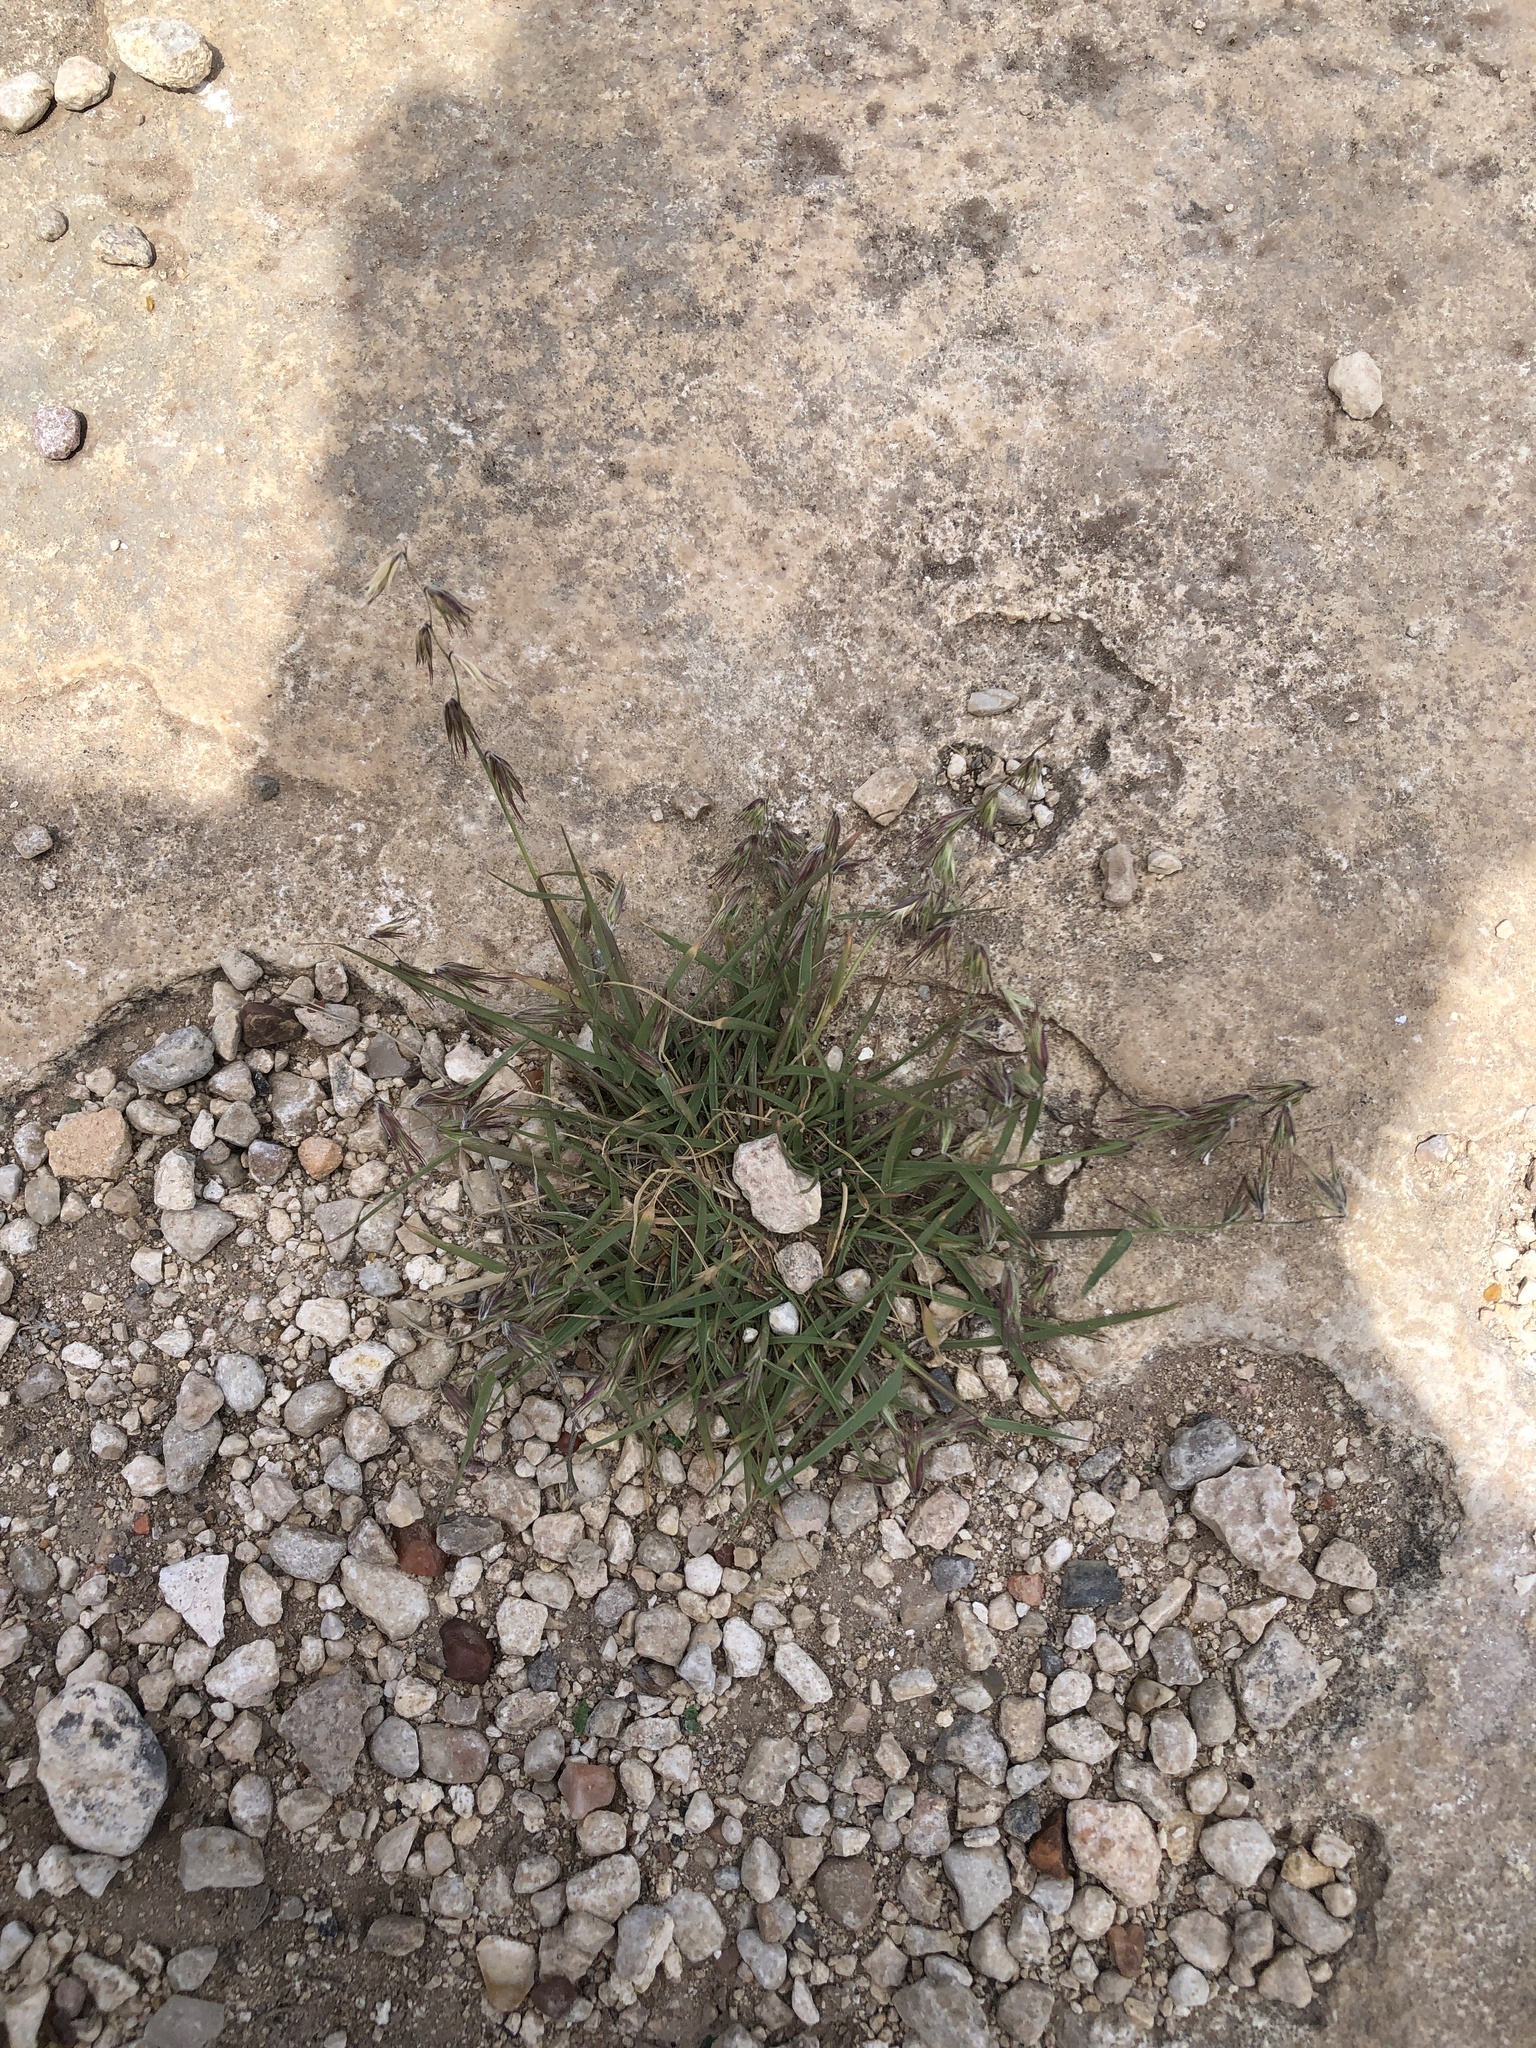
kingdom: Plantae
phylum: Tracheophyta
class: Liliopsida
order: Poales
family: Poaceae
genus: Bouteloua
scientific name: Bouteloua rigidiseta
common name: Texas grama
